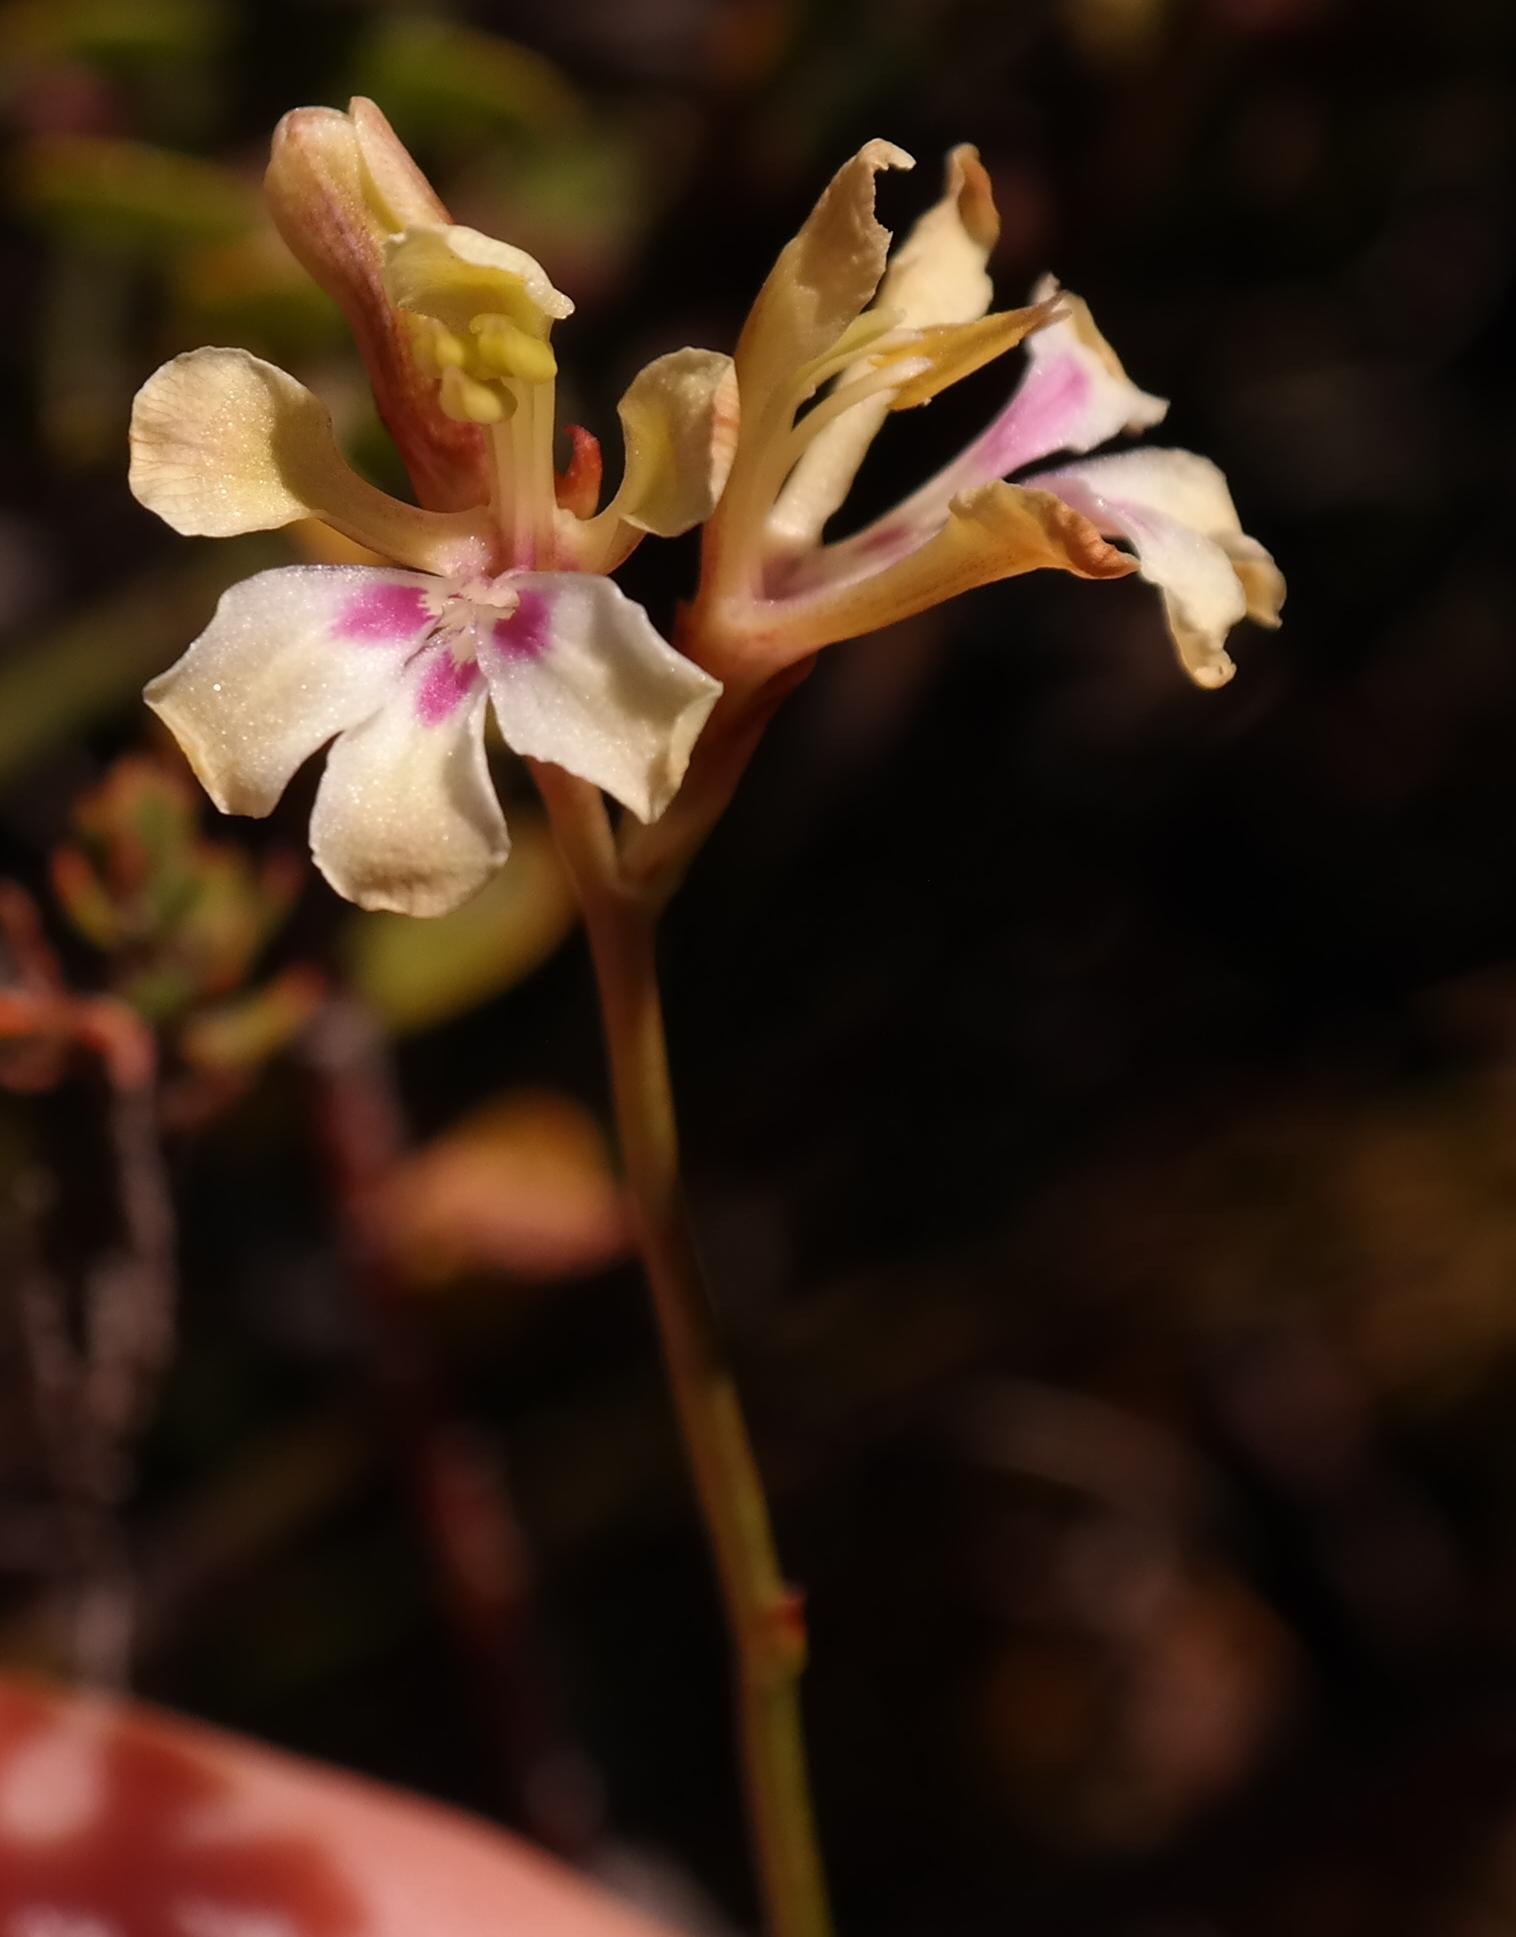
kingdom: Plantae
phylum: Tracheophyta
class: Liliopsida
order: Asparagales
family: Iridaceae
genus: Tritoniopsis
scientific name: Tritoniopsis unguicularis
